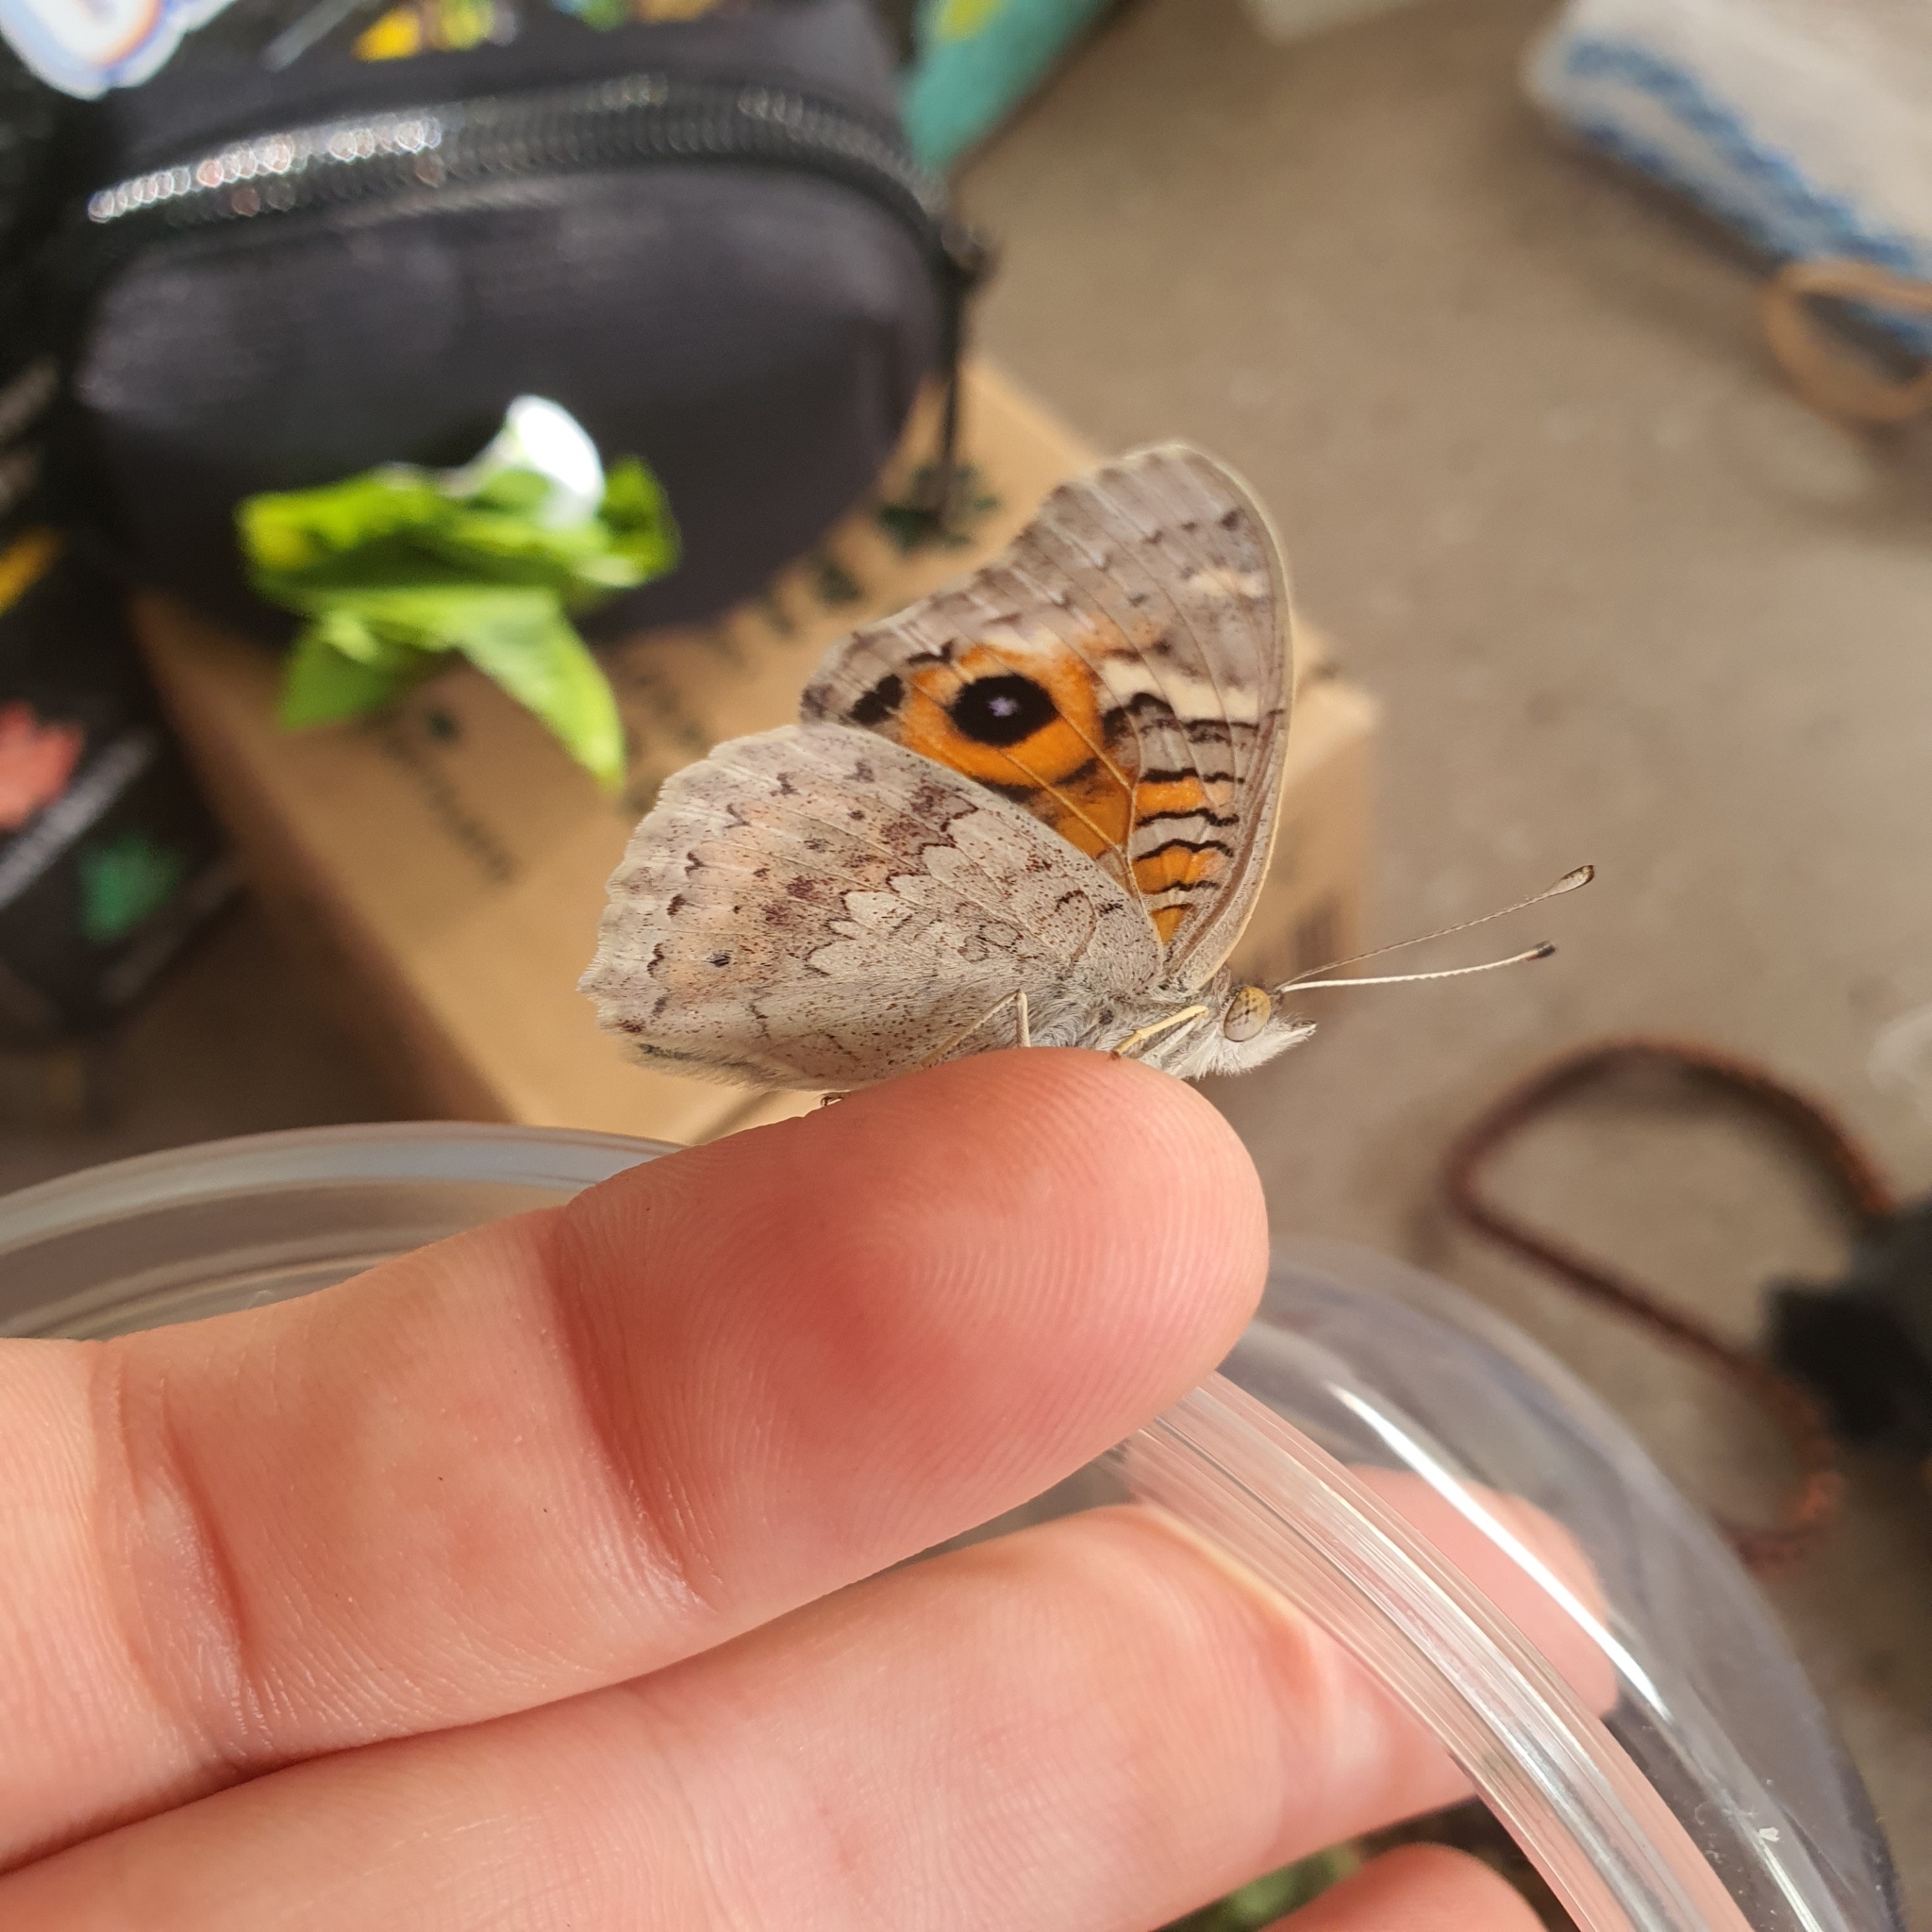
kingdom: Animalia
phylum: Arthropoda
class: Insecta
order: Lepidoptera
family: Nymphalidae
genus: Junonia
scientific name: Junonia villida
